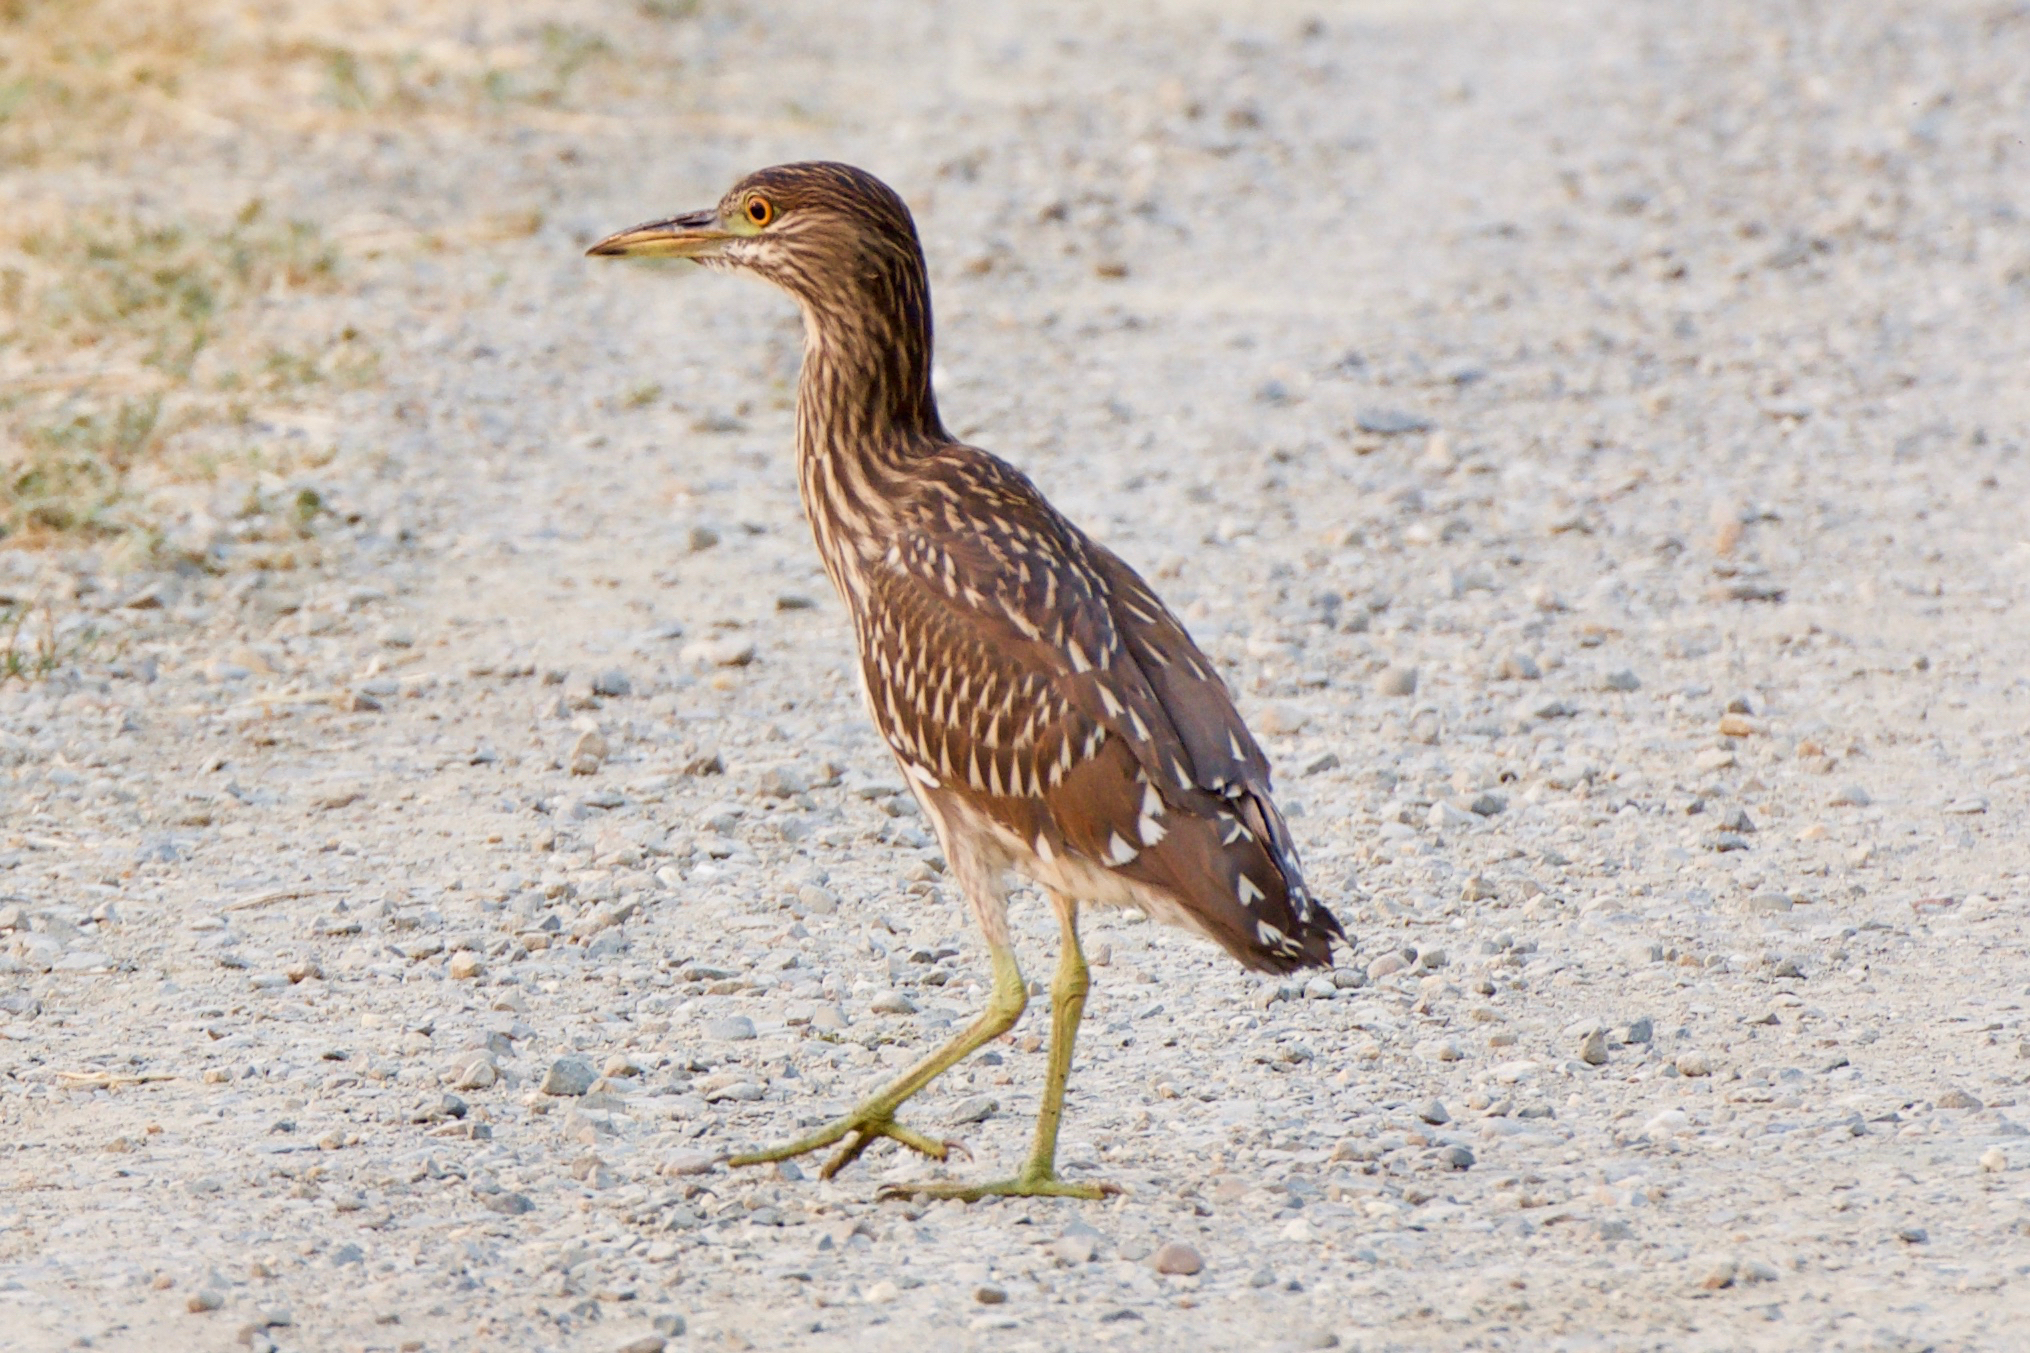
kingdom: Animalia
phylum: Chordata
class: Aves
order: Pelecaniformes
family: Ardeidae
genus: Nycticorax
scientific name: Nycticorax nycticorax
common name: Black-crowned night heron
